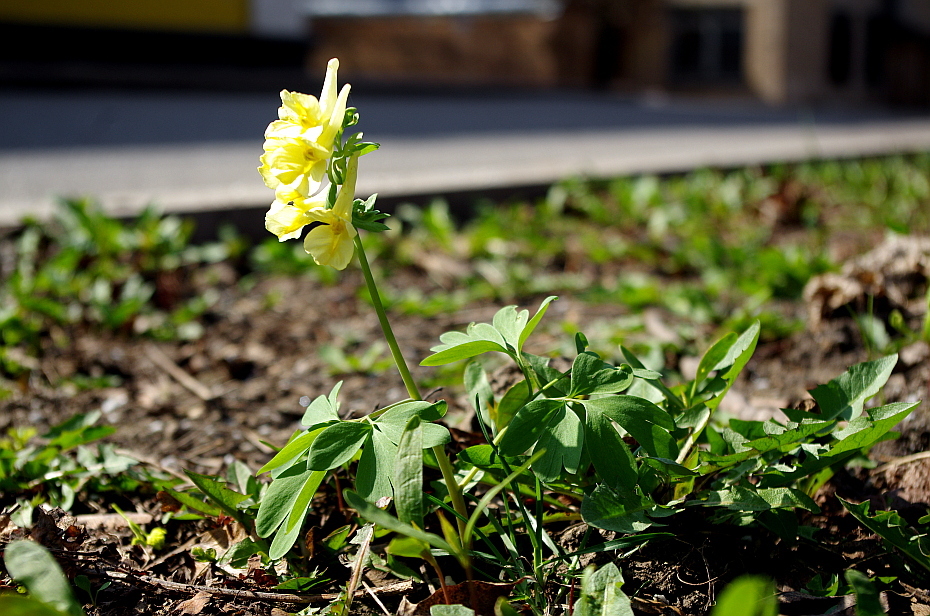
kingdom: Plantae
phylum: Tracheophyta
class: Magnoliopsida
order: Ranunculales
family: Papaveraceae
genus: Corydalis
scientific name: Corydalis bracteata
